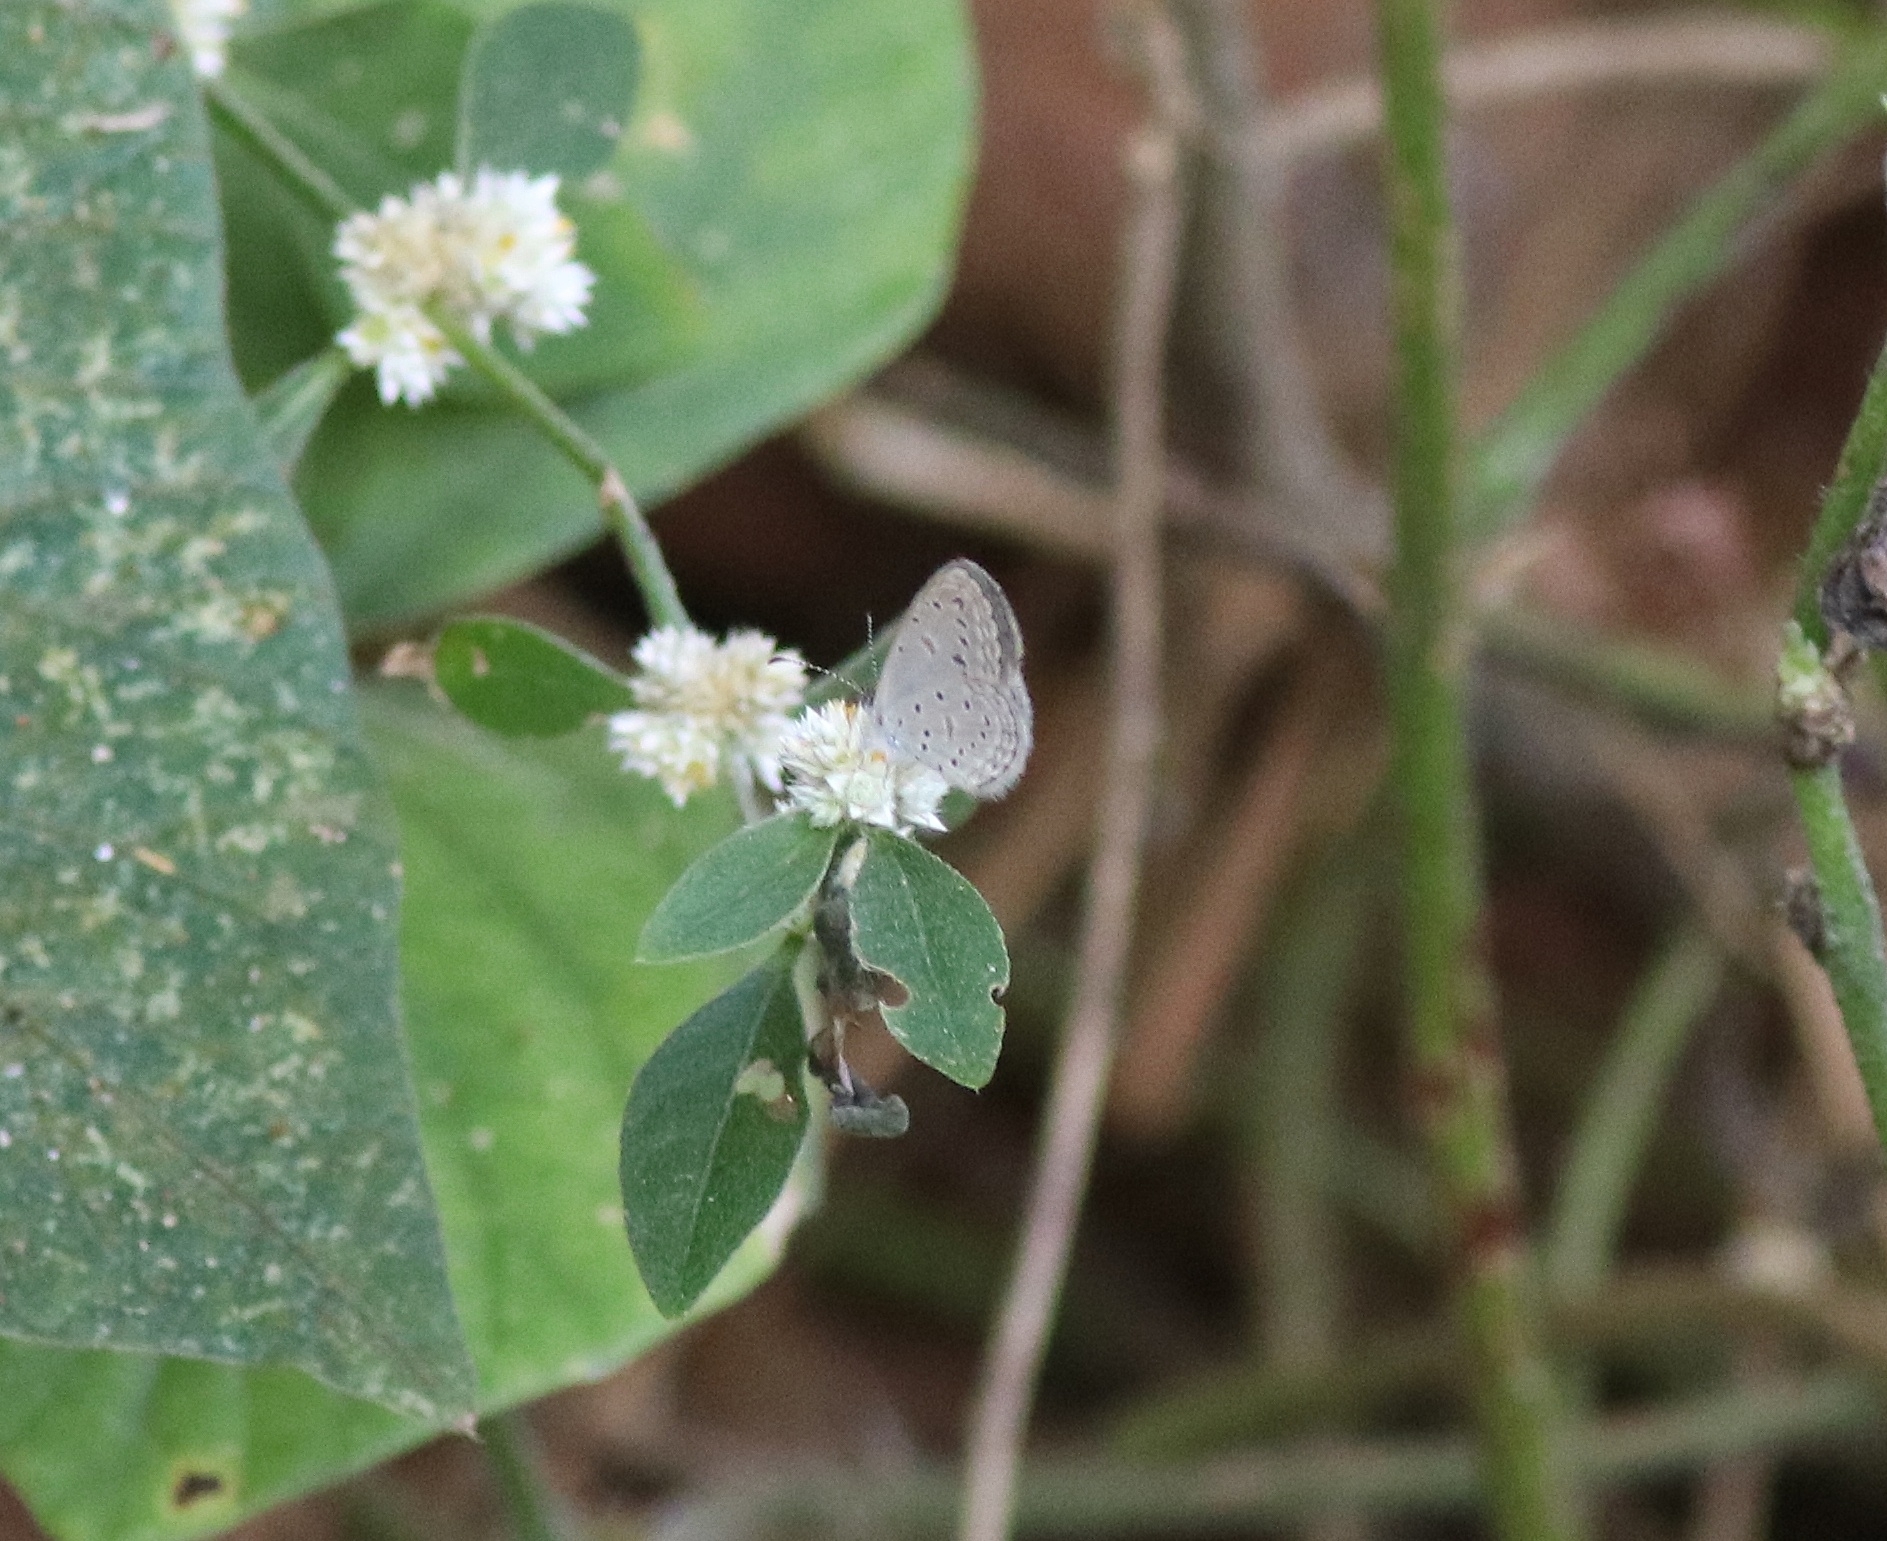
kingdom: Animalia
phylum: Arthropoda
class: Insecta
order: Lepidoptera
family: Lycaenidae
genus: Zizula
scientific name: Zizula hylax
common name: Gaika blue
